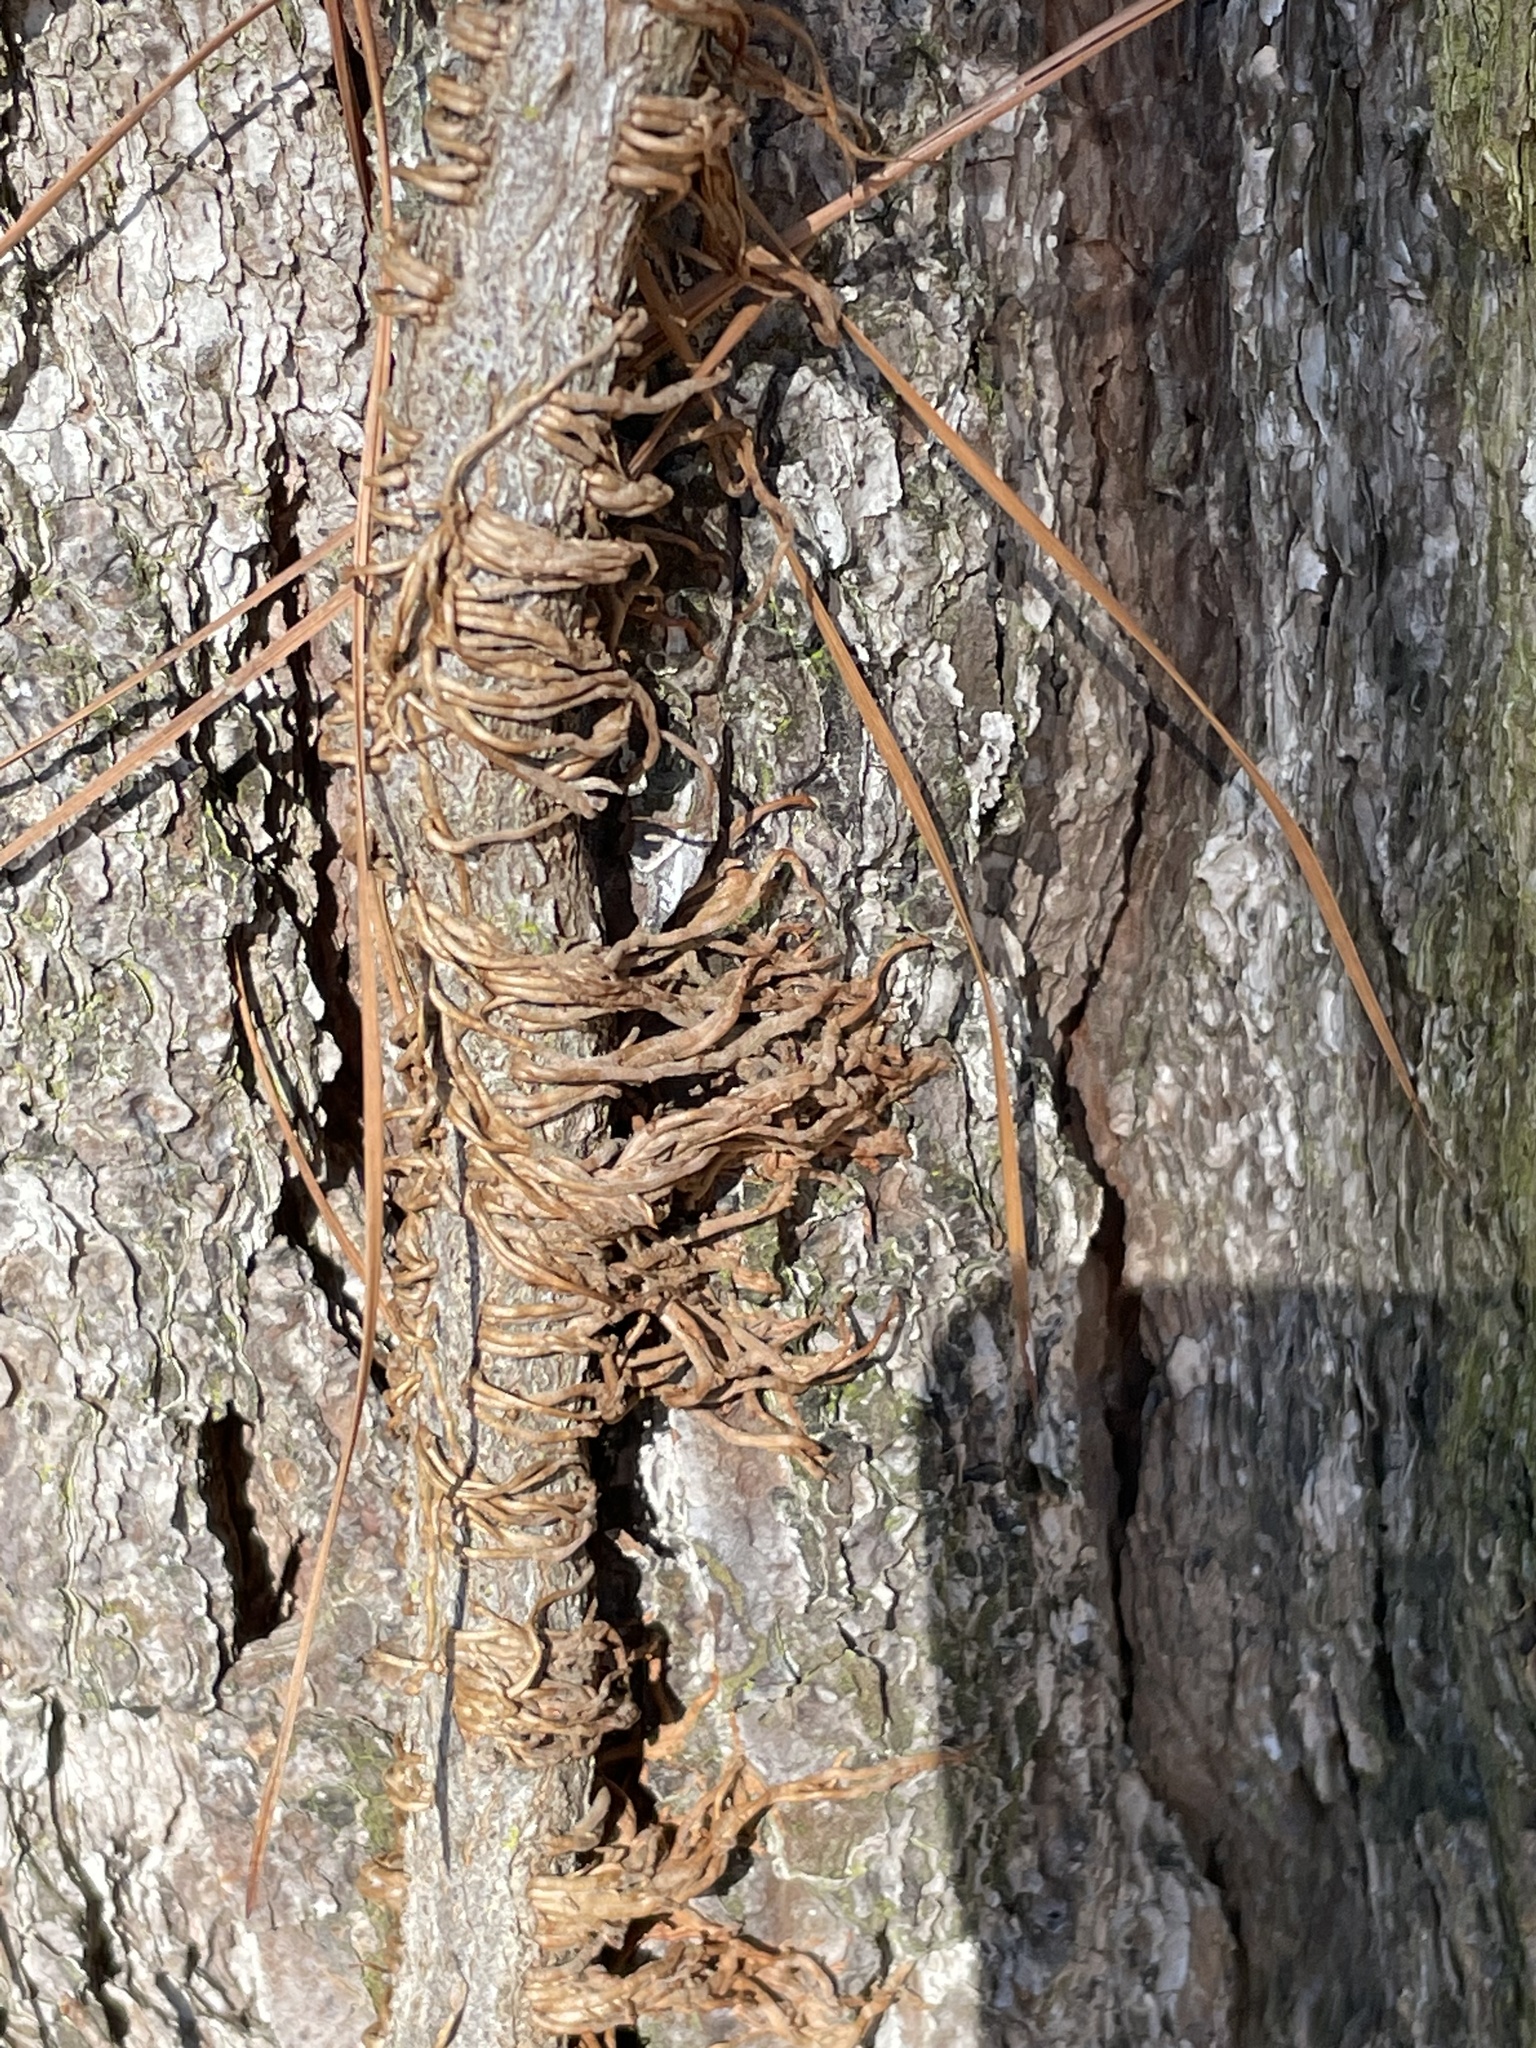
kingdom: Plantae
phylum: Tracheophyta
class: Magnoliopsida
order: Sapindales
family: Anacardiaceae
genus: Toxicodendron
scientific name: Toxicodendron radicans
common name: Poison ivy
